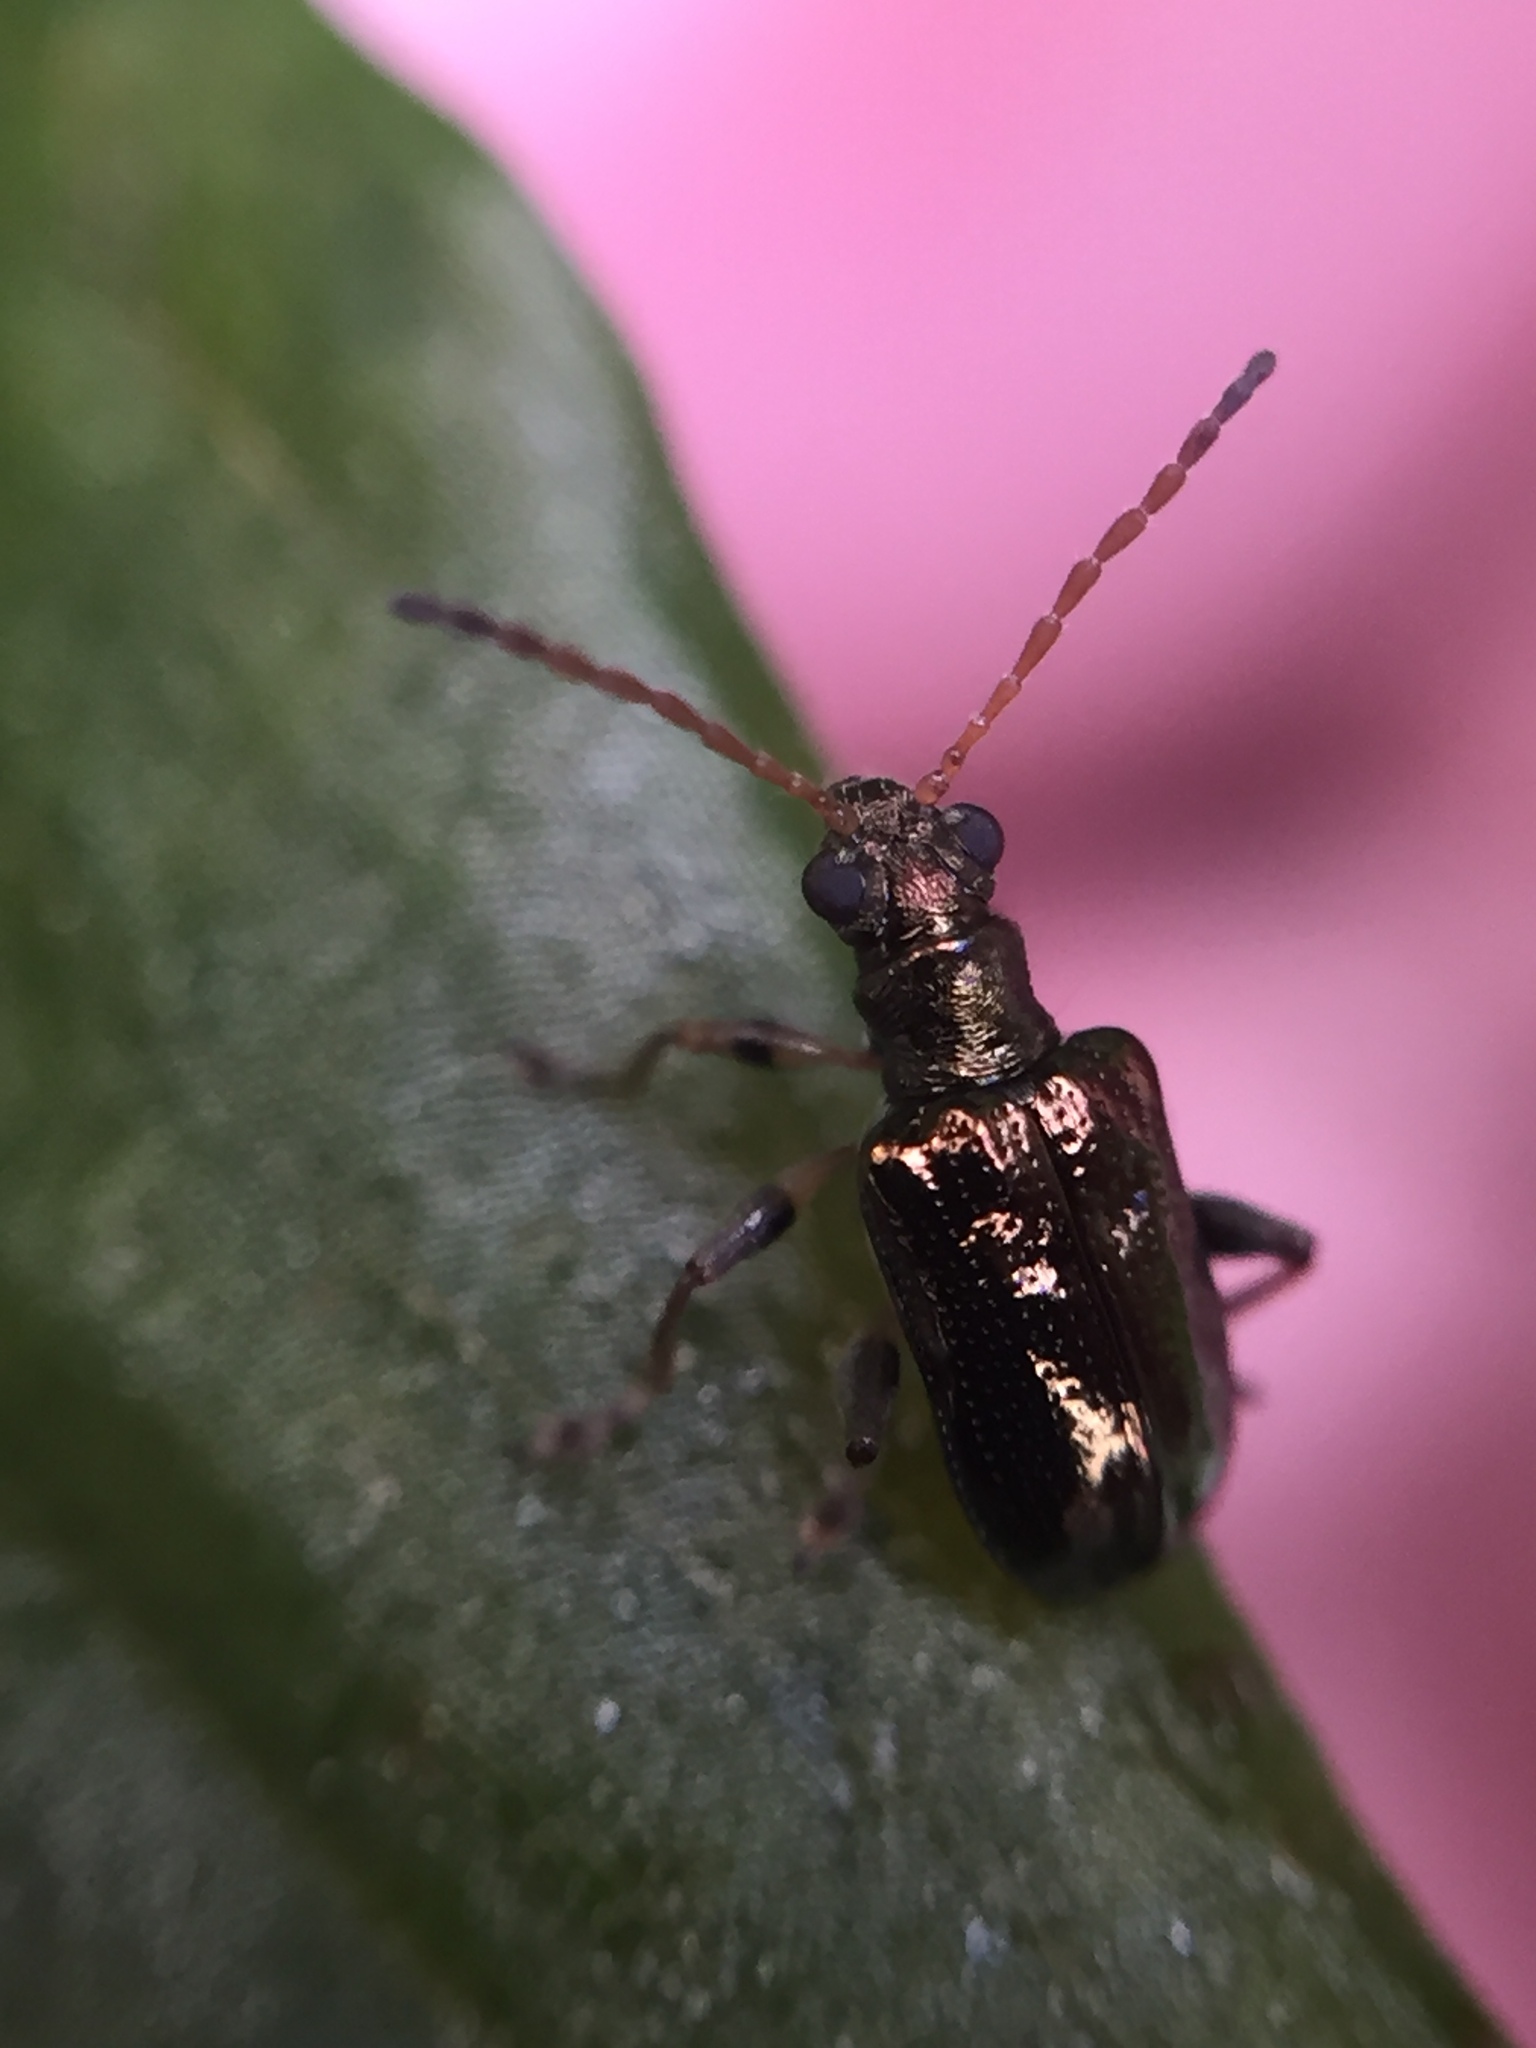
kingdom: Animalia
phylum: Arthropoda
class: Insecta
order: Coleoptera
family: Chrysomelidae
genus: Neolema
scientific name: Neolema ogloblini
